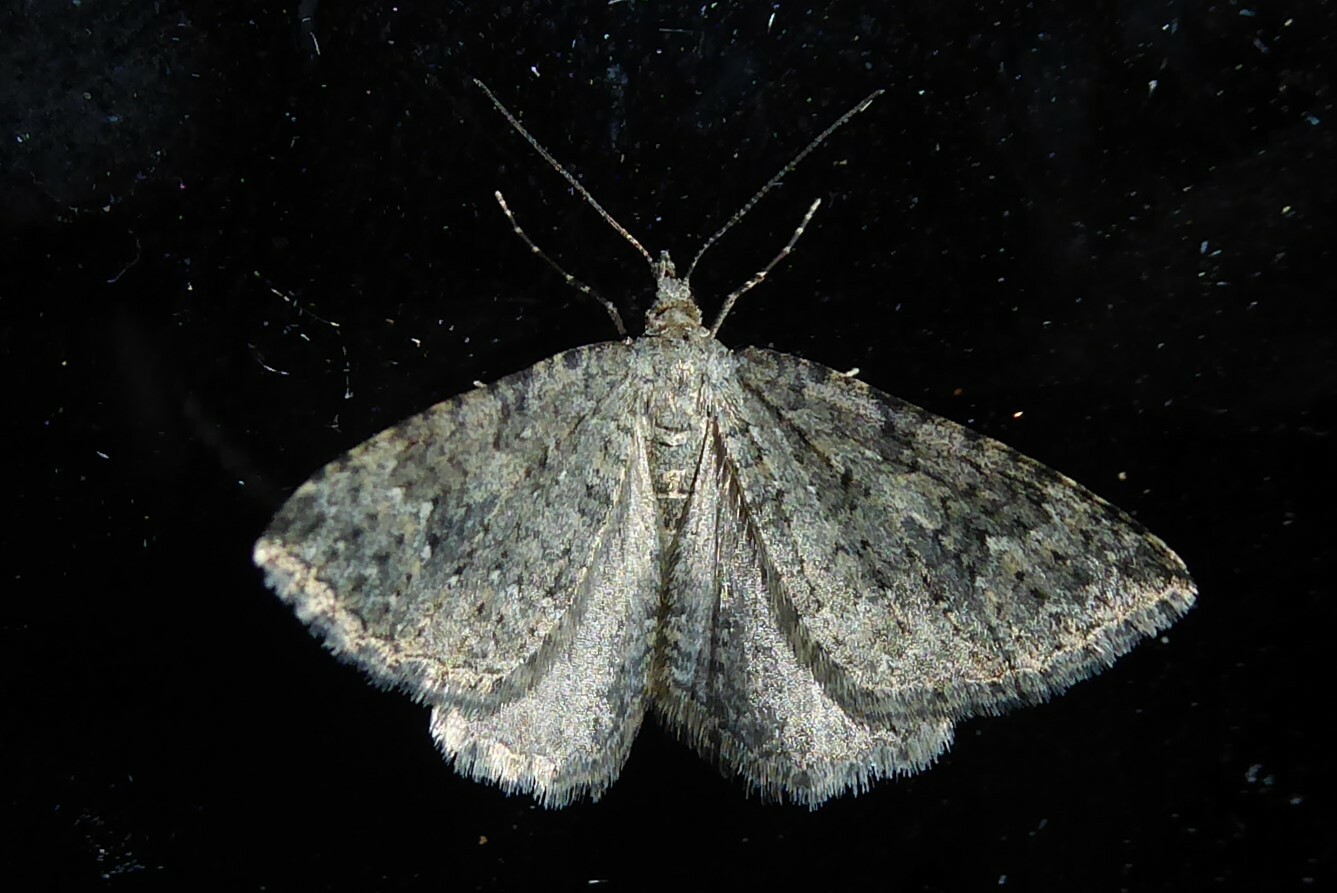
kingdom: Animalia
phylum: Arthropoda
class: Insecta
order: Lepidoptera
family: Geometridae
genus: Helastia
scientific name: Helastia corcularia
